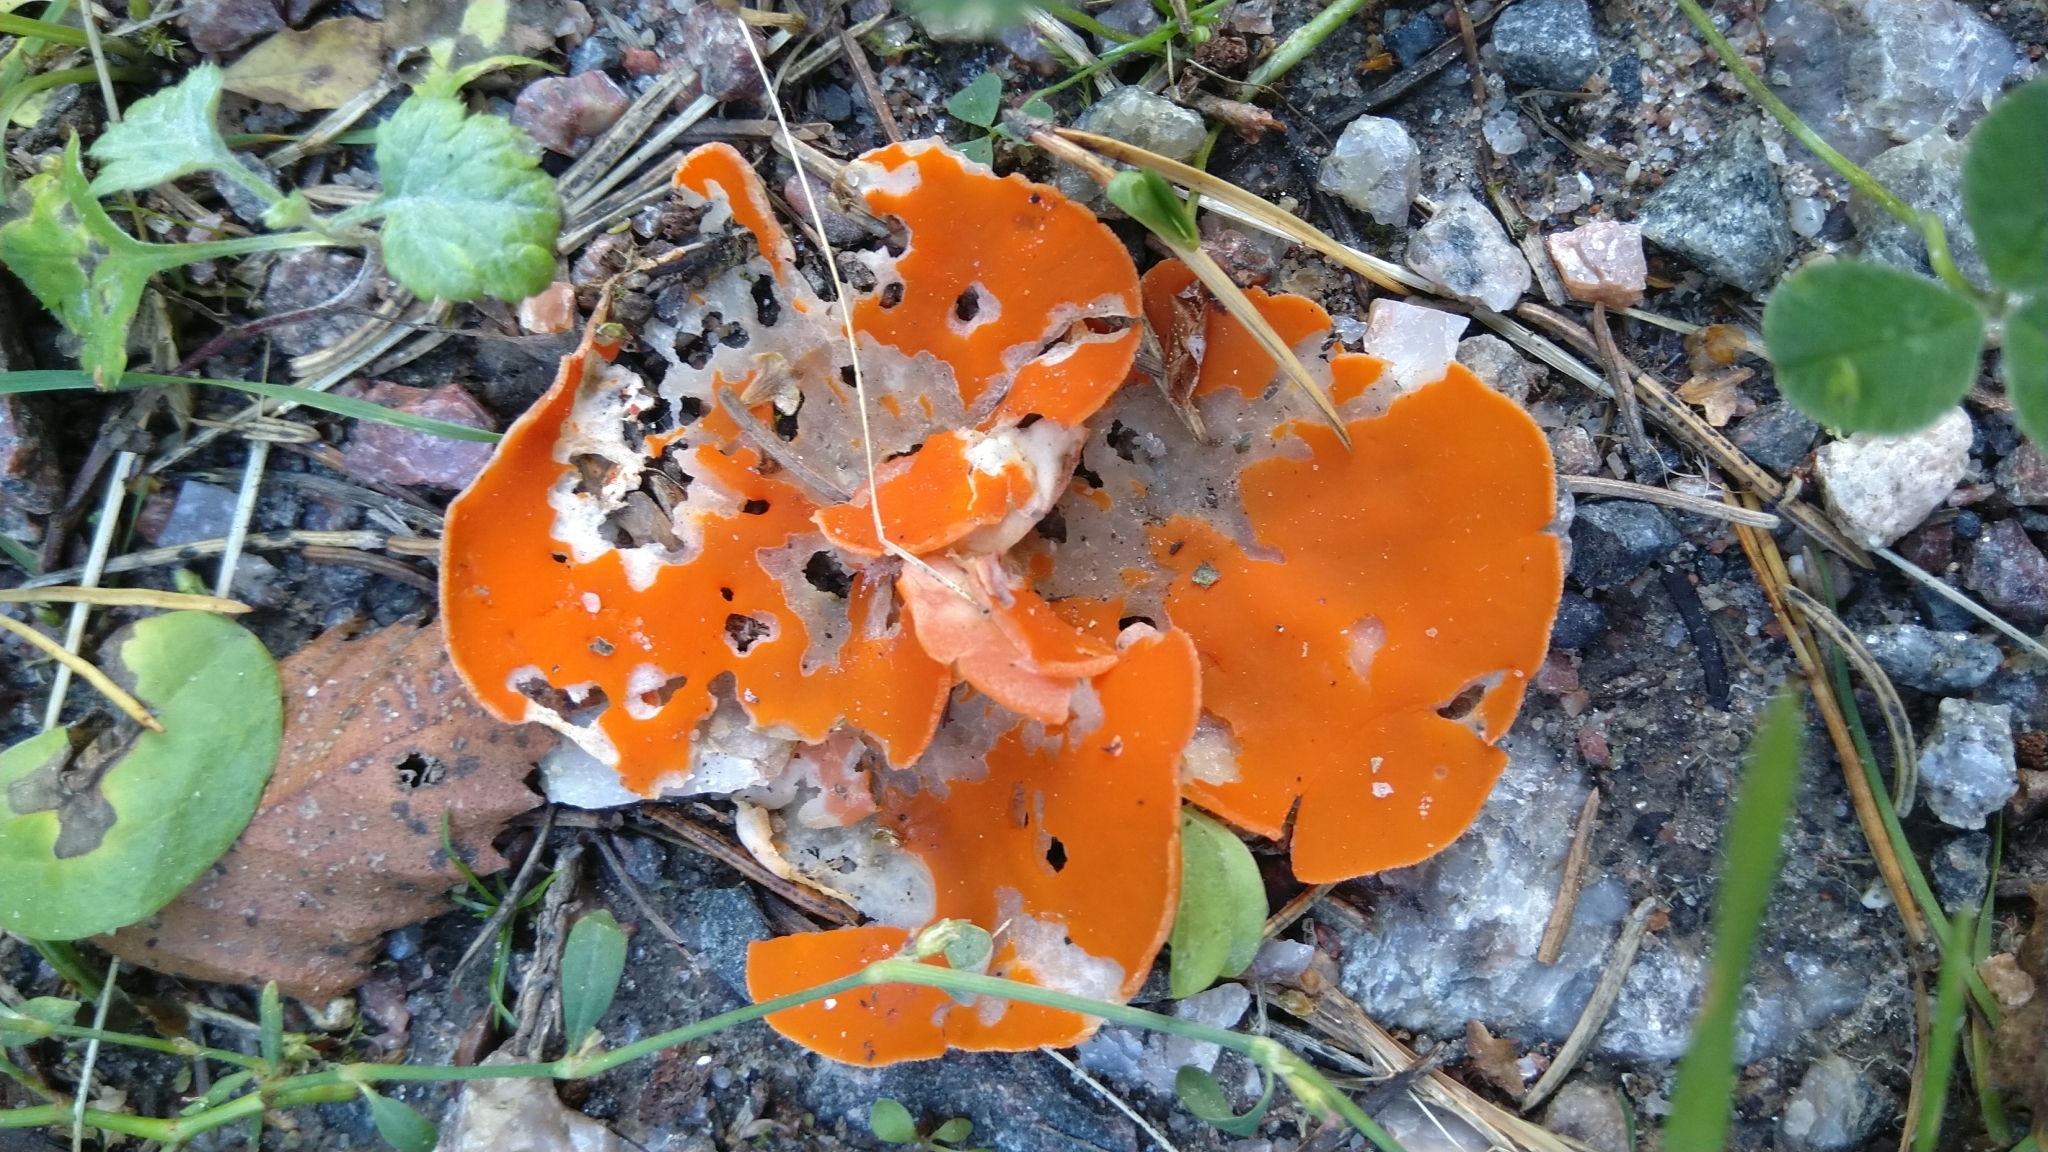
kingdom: Fungi
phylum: Ascomycota
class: Pezizomycetes
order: Pezizales
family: Pyronemataceae
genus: Aleuria
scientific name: Aleuria aurantia
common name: Orange peel fungus
